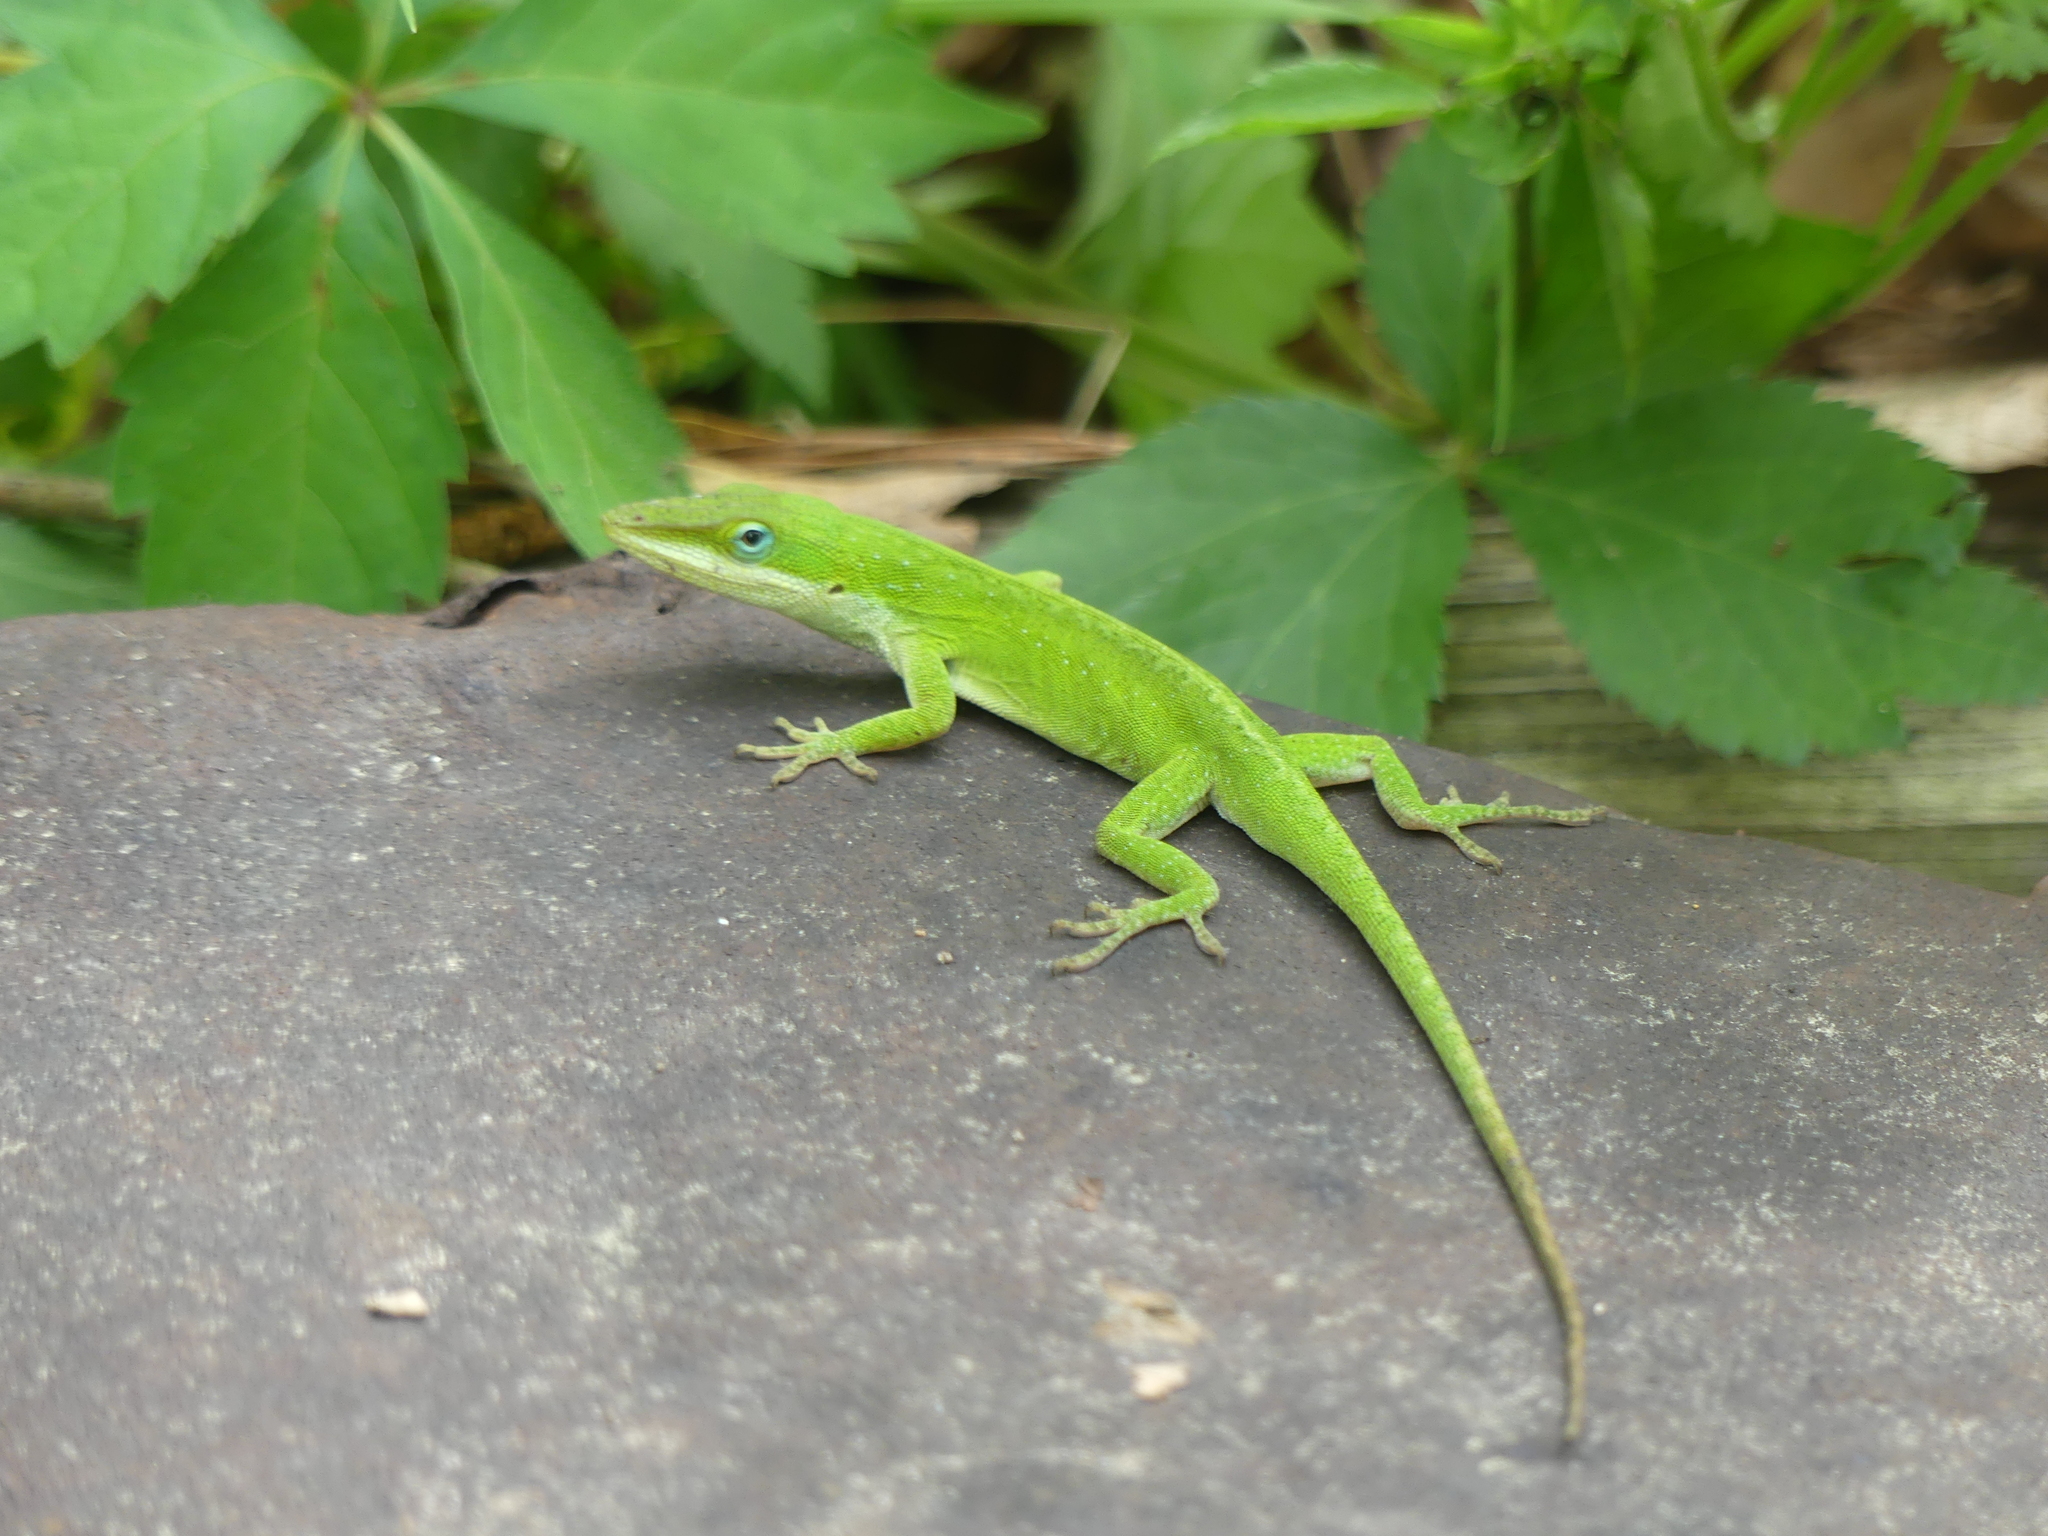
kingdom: Animalia
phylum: Chordata
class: Squamata
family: Dactyloidae
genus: Anolis
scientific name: Anolis carolinensis
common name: Green anole
